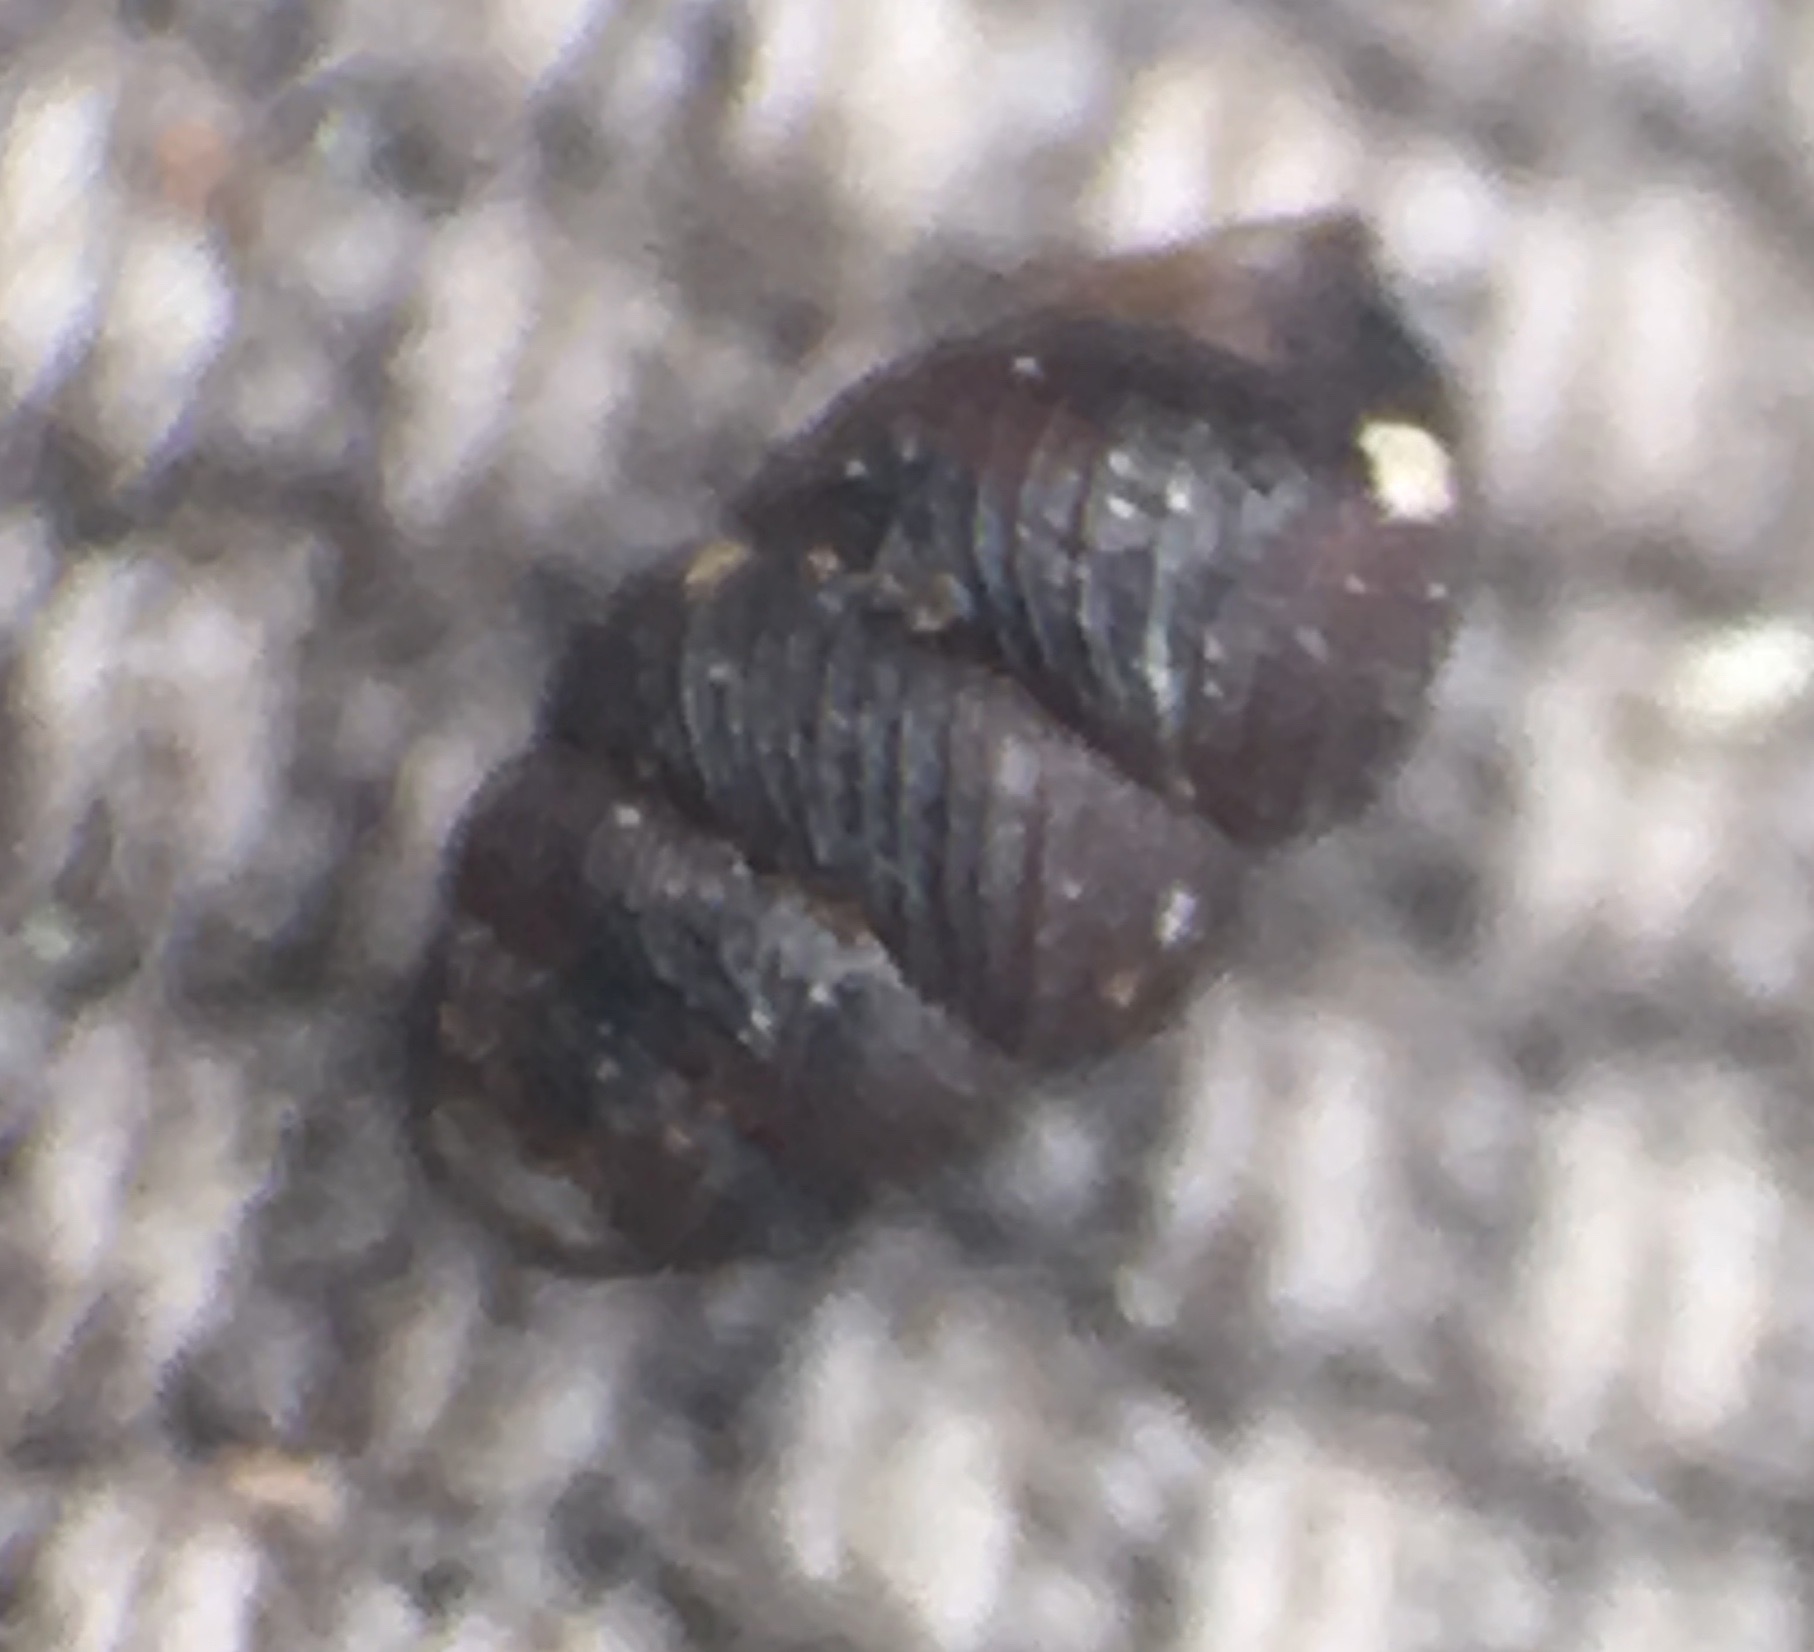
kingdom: Animalia
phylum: Mollusca
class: Gastropoda
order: Stylommatophora
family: Vertiginidae
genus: Vertigo
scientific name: Vertigo californica
